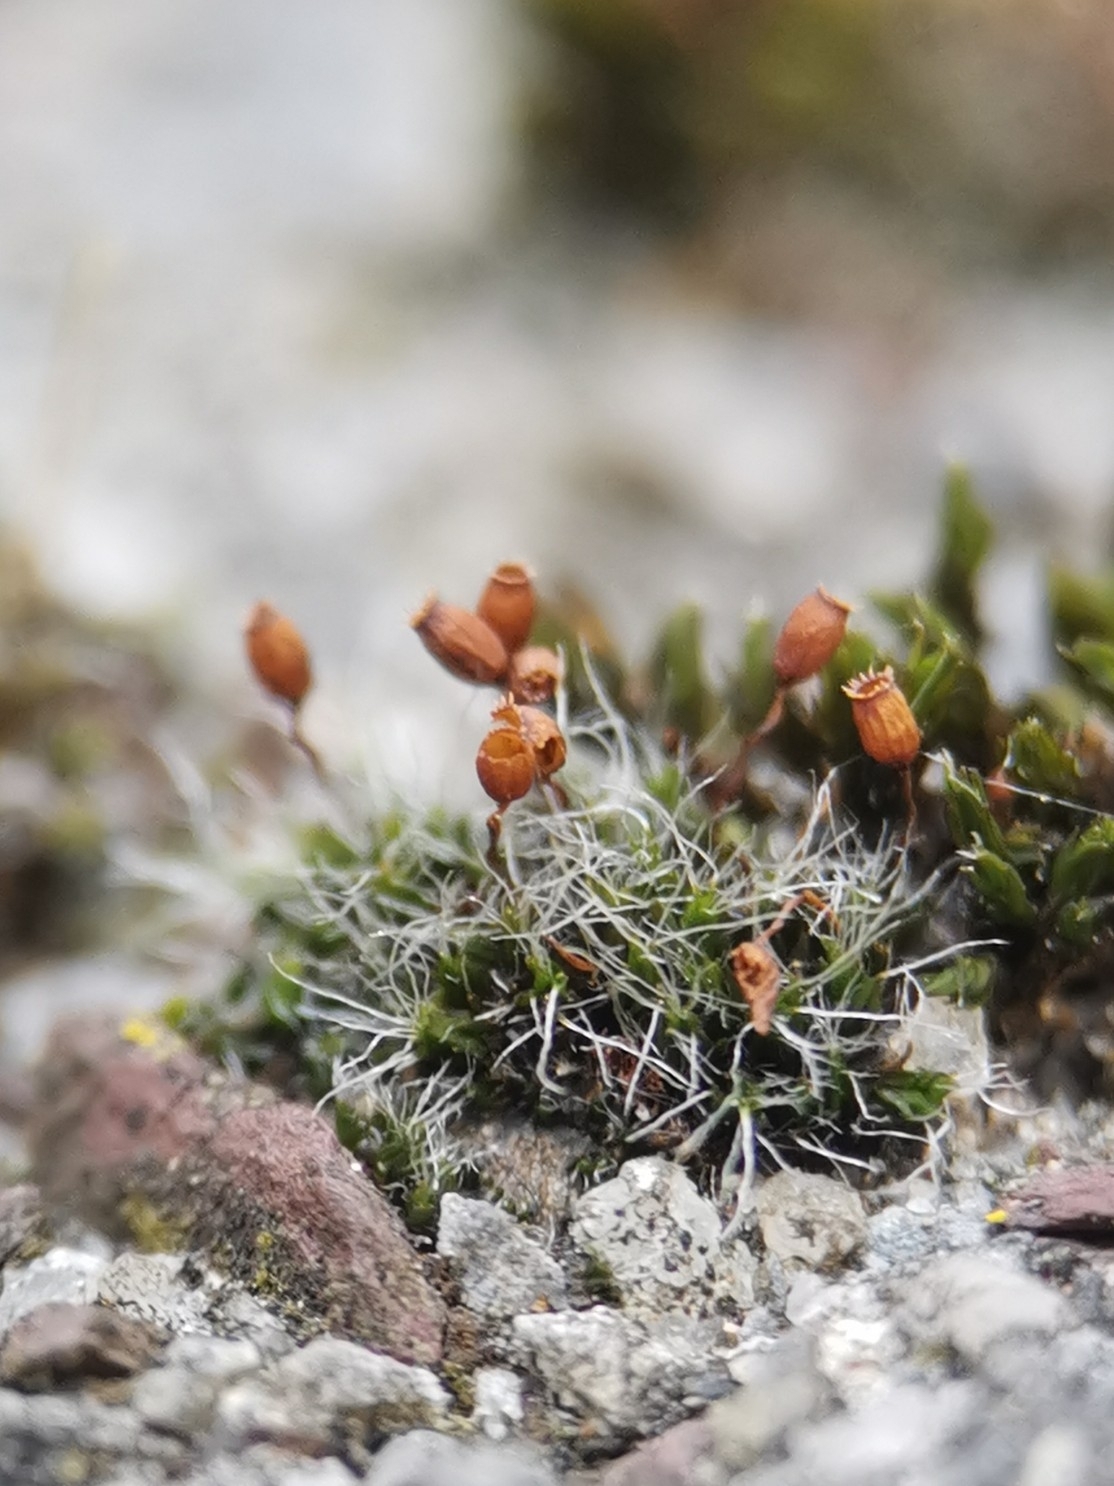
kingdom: Plantae
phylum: Bryophyta
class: Bryopsida
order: Grimmiales
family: Grimmiaceae
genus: Grimmia
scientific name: Grimmia pulvinata
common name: Grey-cushioned grimmia
